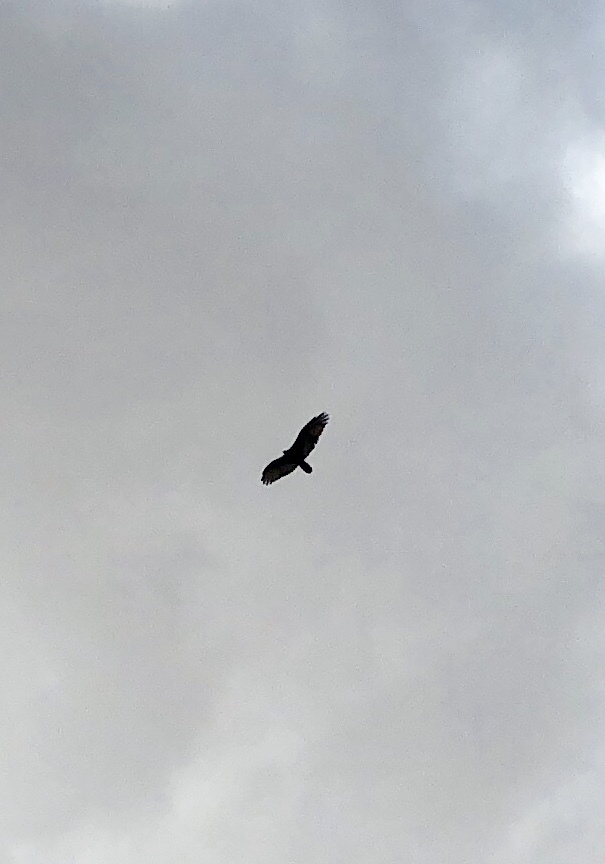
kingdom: Animalia
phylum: Chordata
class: Aves
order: Accipitriformes
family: Cathartidae
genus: Cathartes
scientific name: Cathartes aura
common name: Turkey vulture
